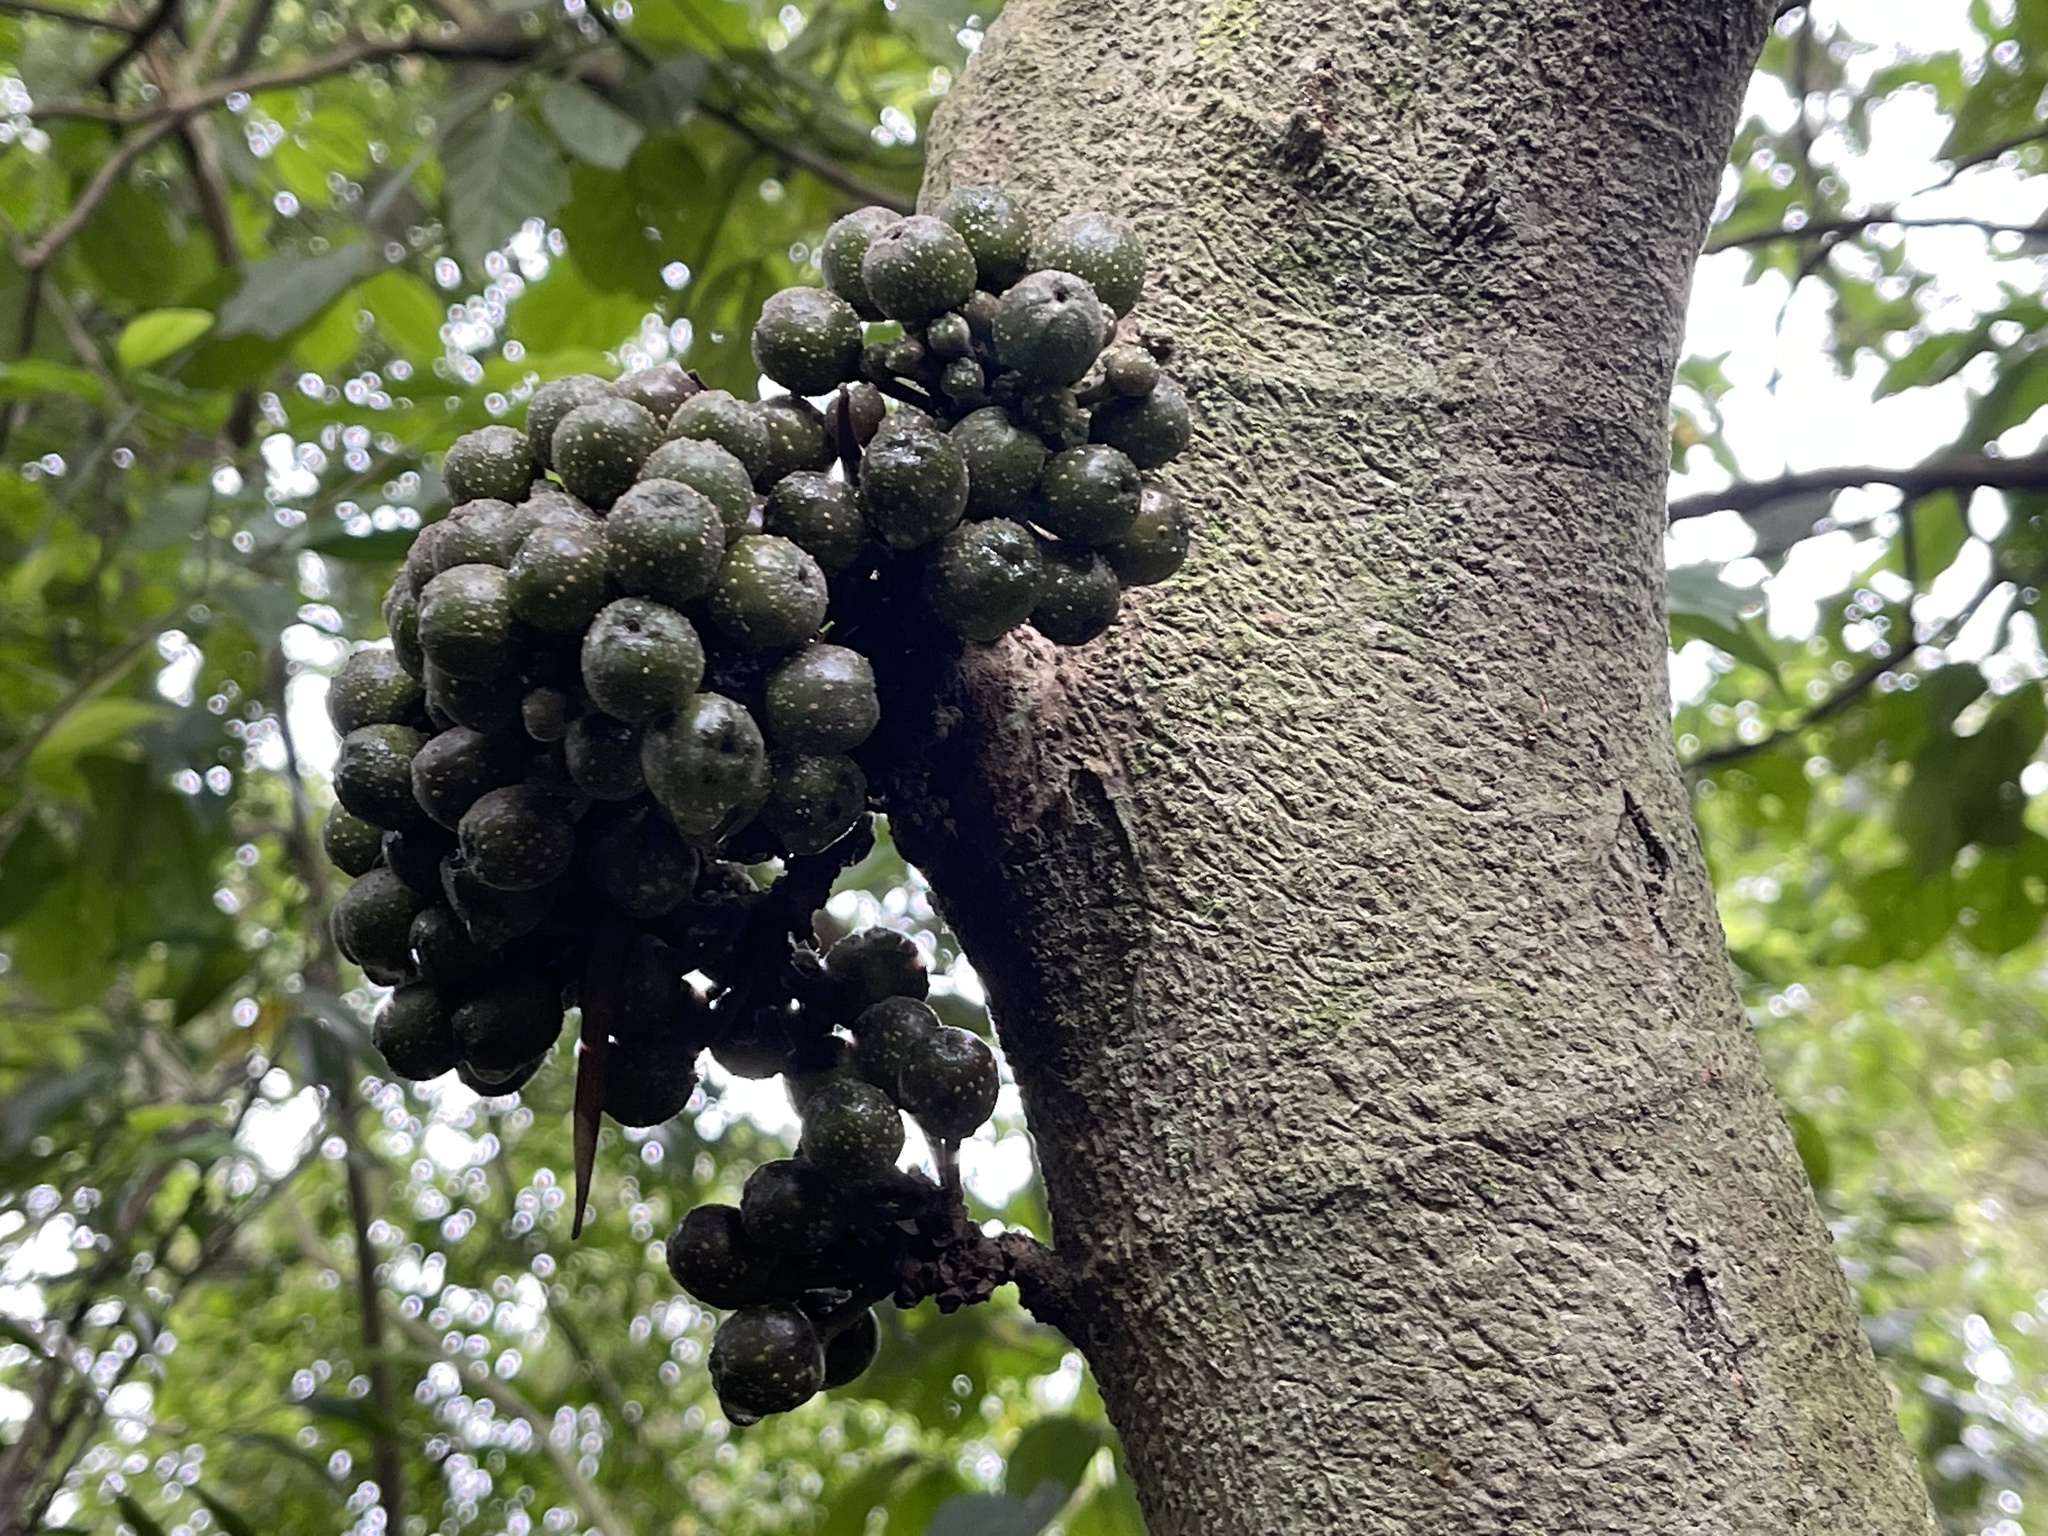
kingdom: Plantae
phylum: Tracheophyta
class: Magnoliopsida
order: Rosales
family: Moraceae
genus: Ficus
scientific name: Ficus benguetensis
